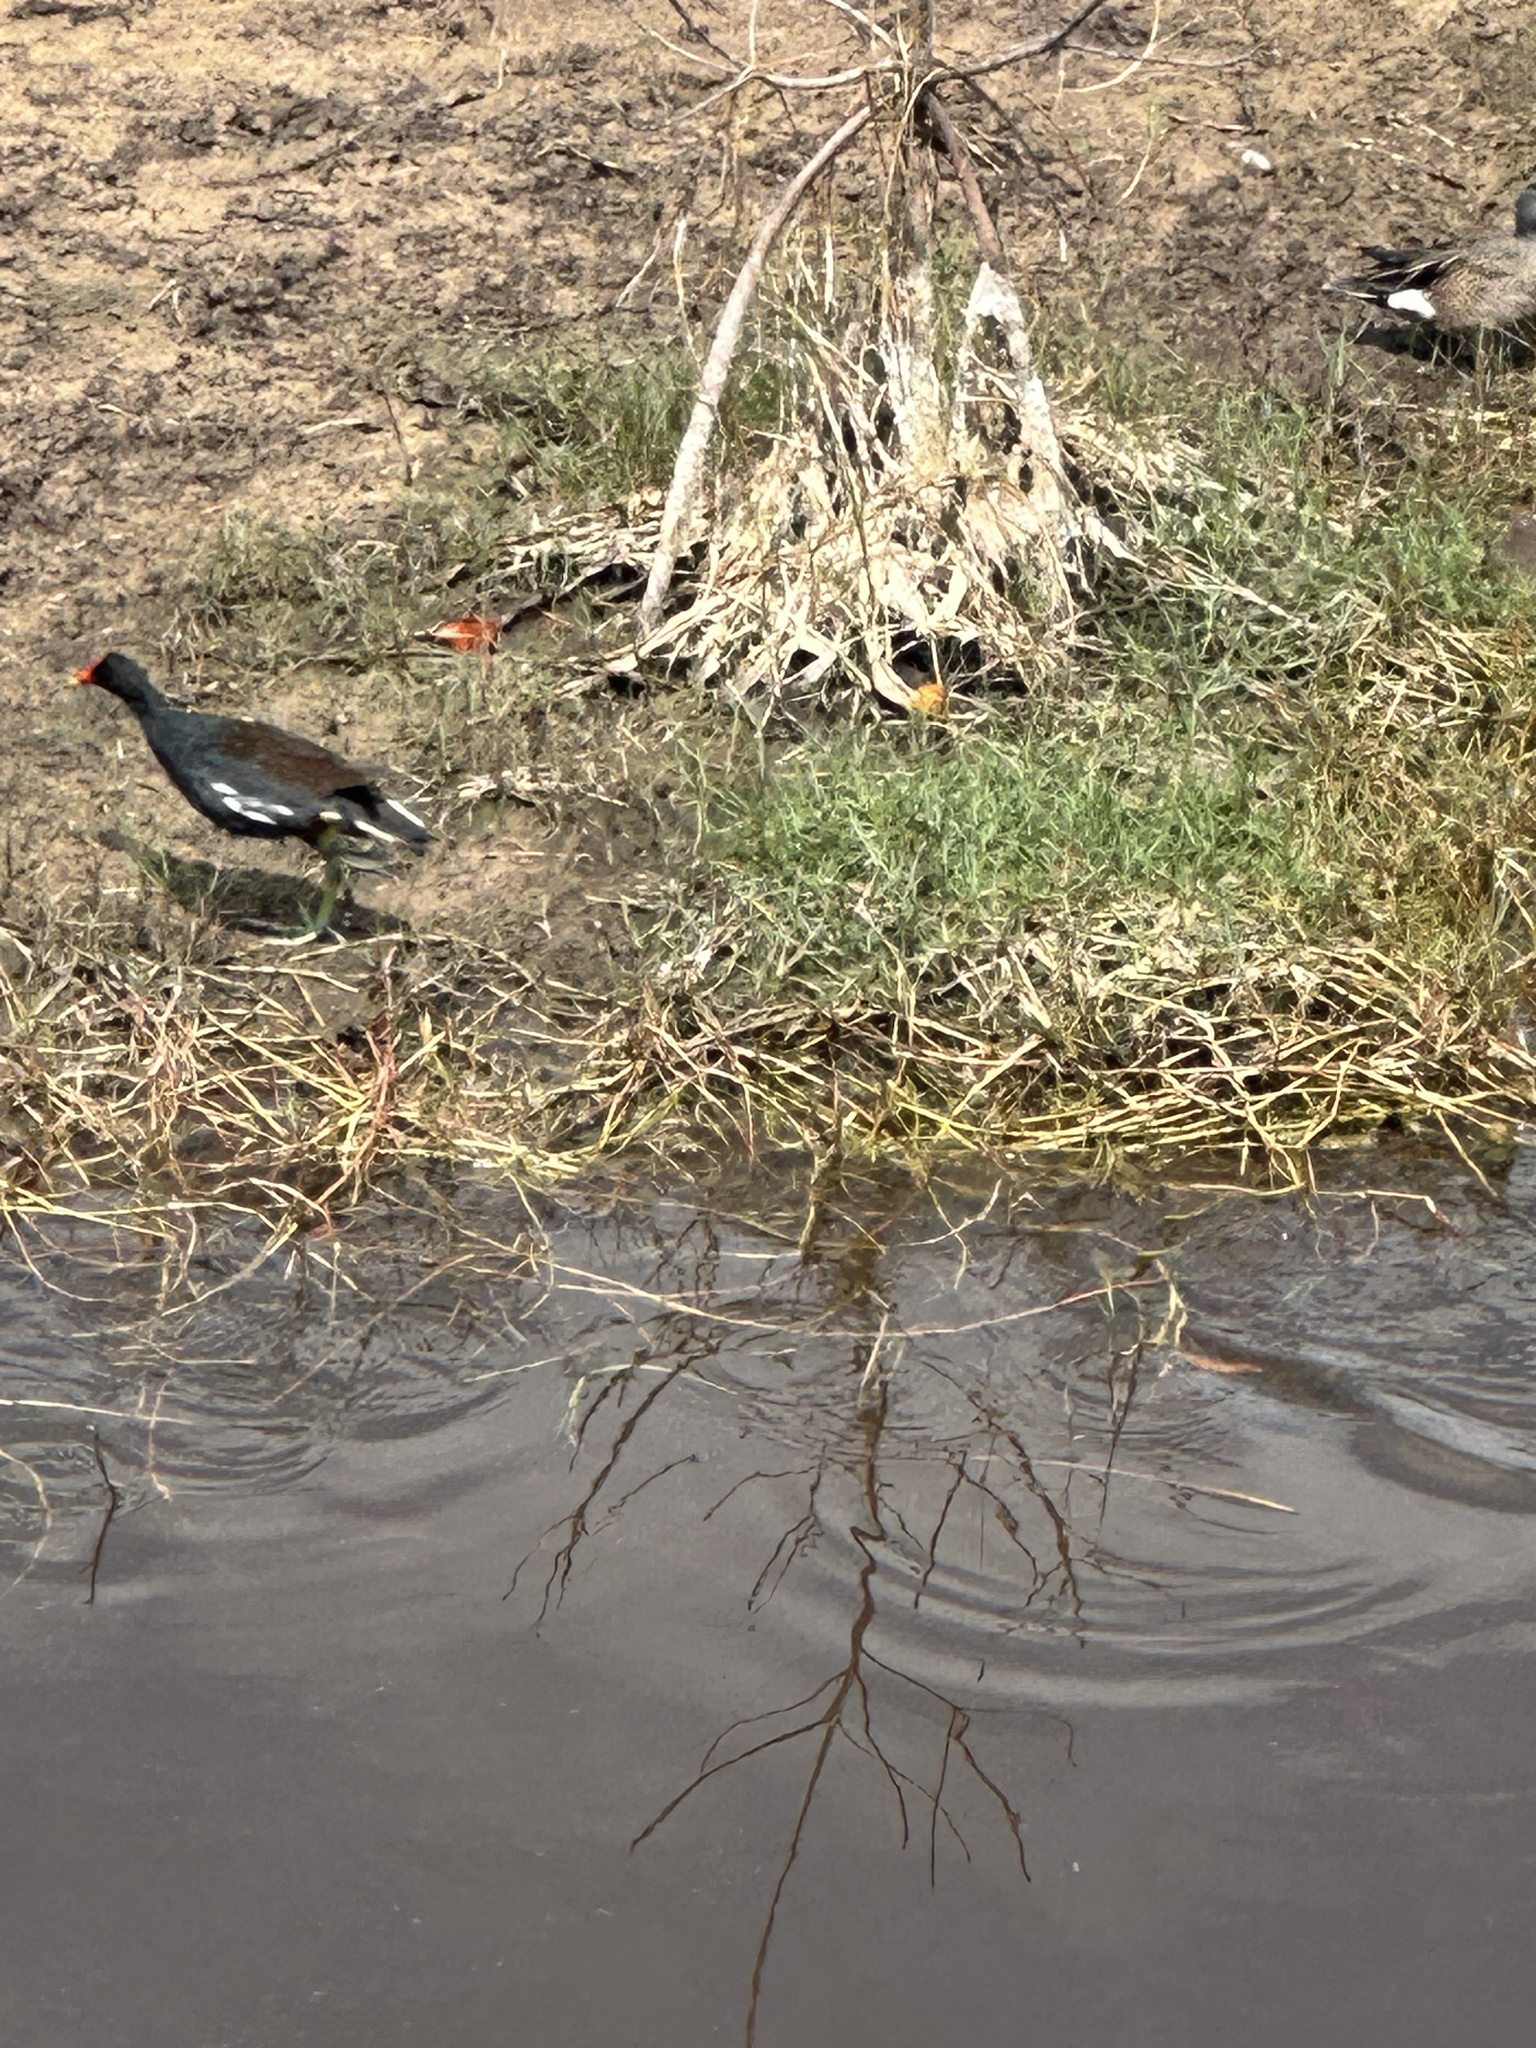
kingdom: Animalia
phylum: Chordata
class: Aves
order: Gruiformes
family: Rallidae
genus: Gallinula
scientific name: Gallinula chloropus
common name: Common moorhen
